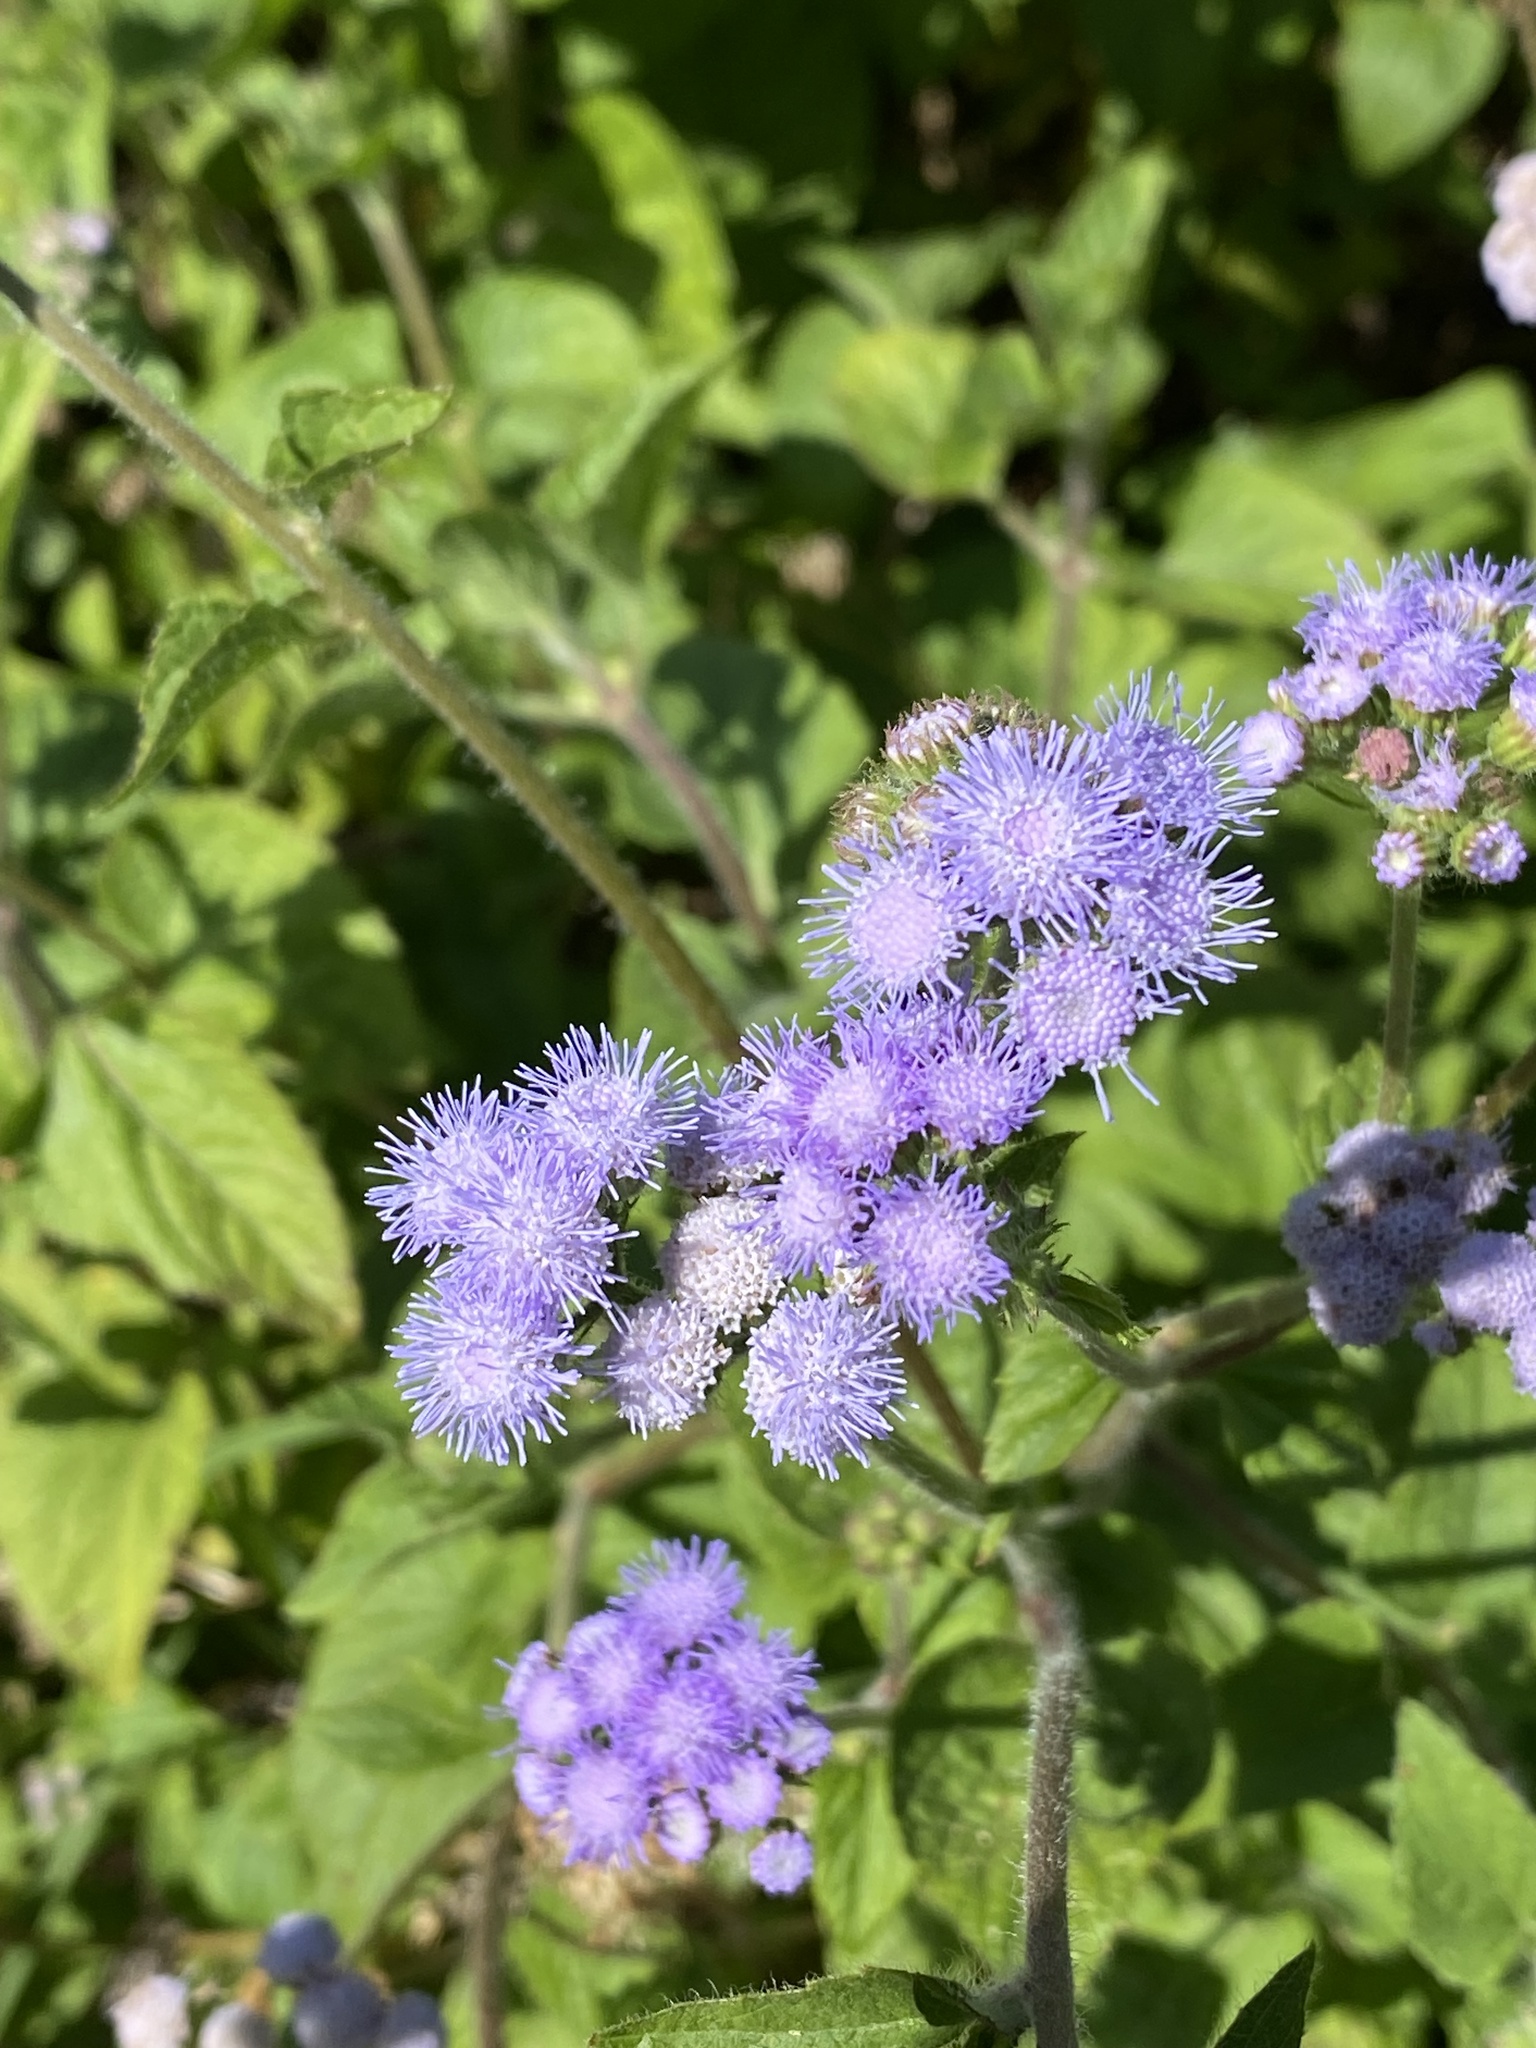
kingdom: Plantae
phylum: Tracheophyta
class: Magnoliopsida
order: Asterales
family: Asteraceae
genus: Ageratum
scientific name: Ageratum houstonianum
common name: Bluemink
